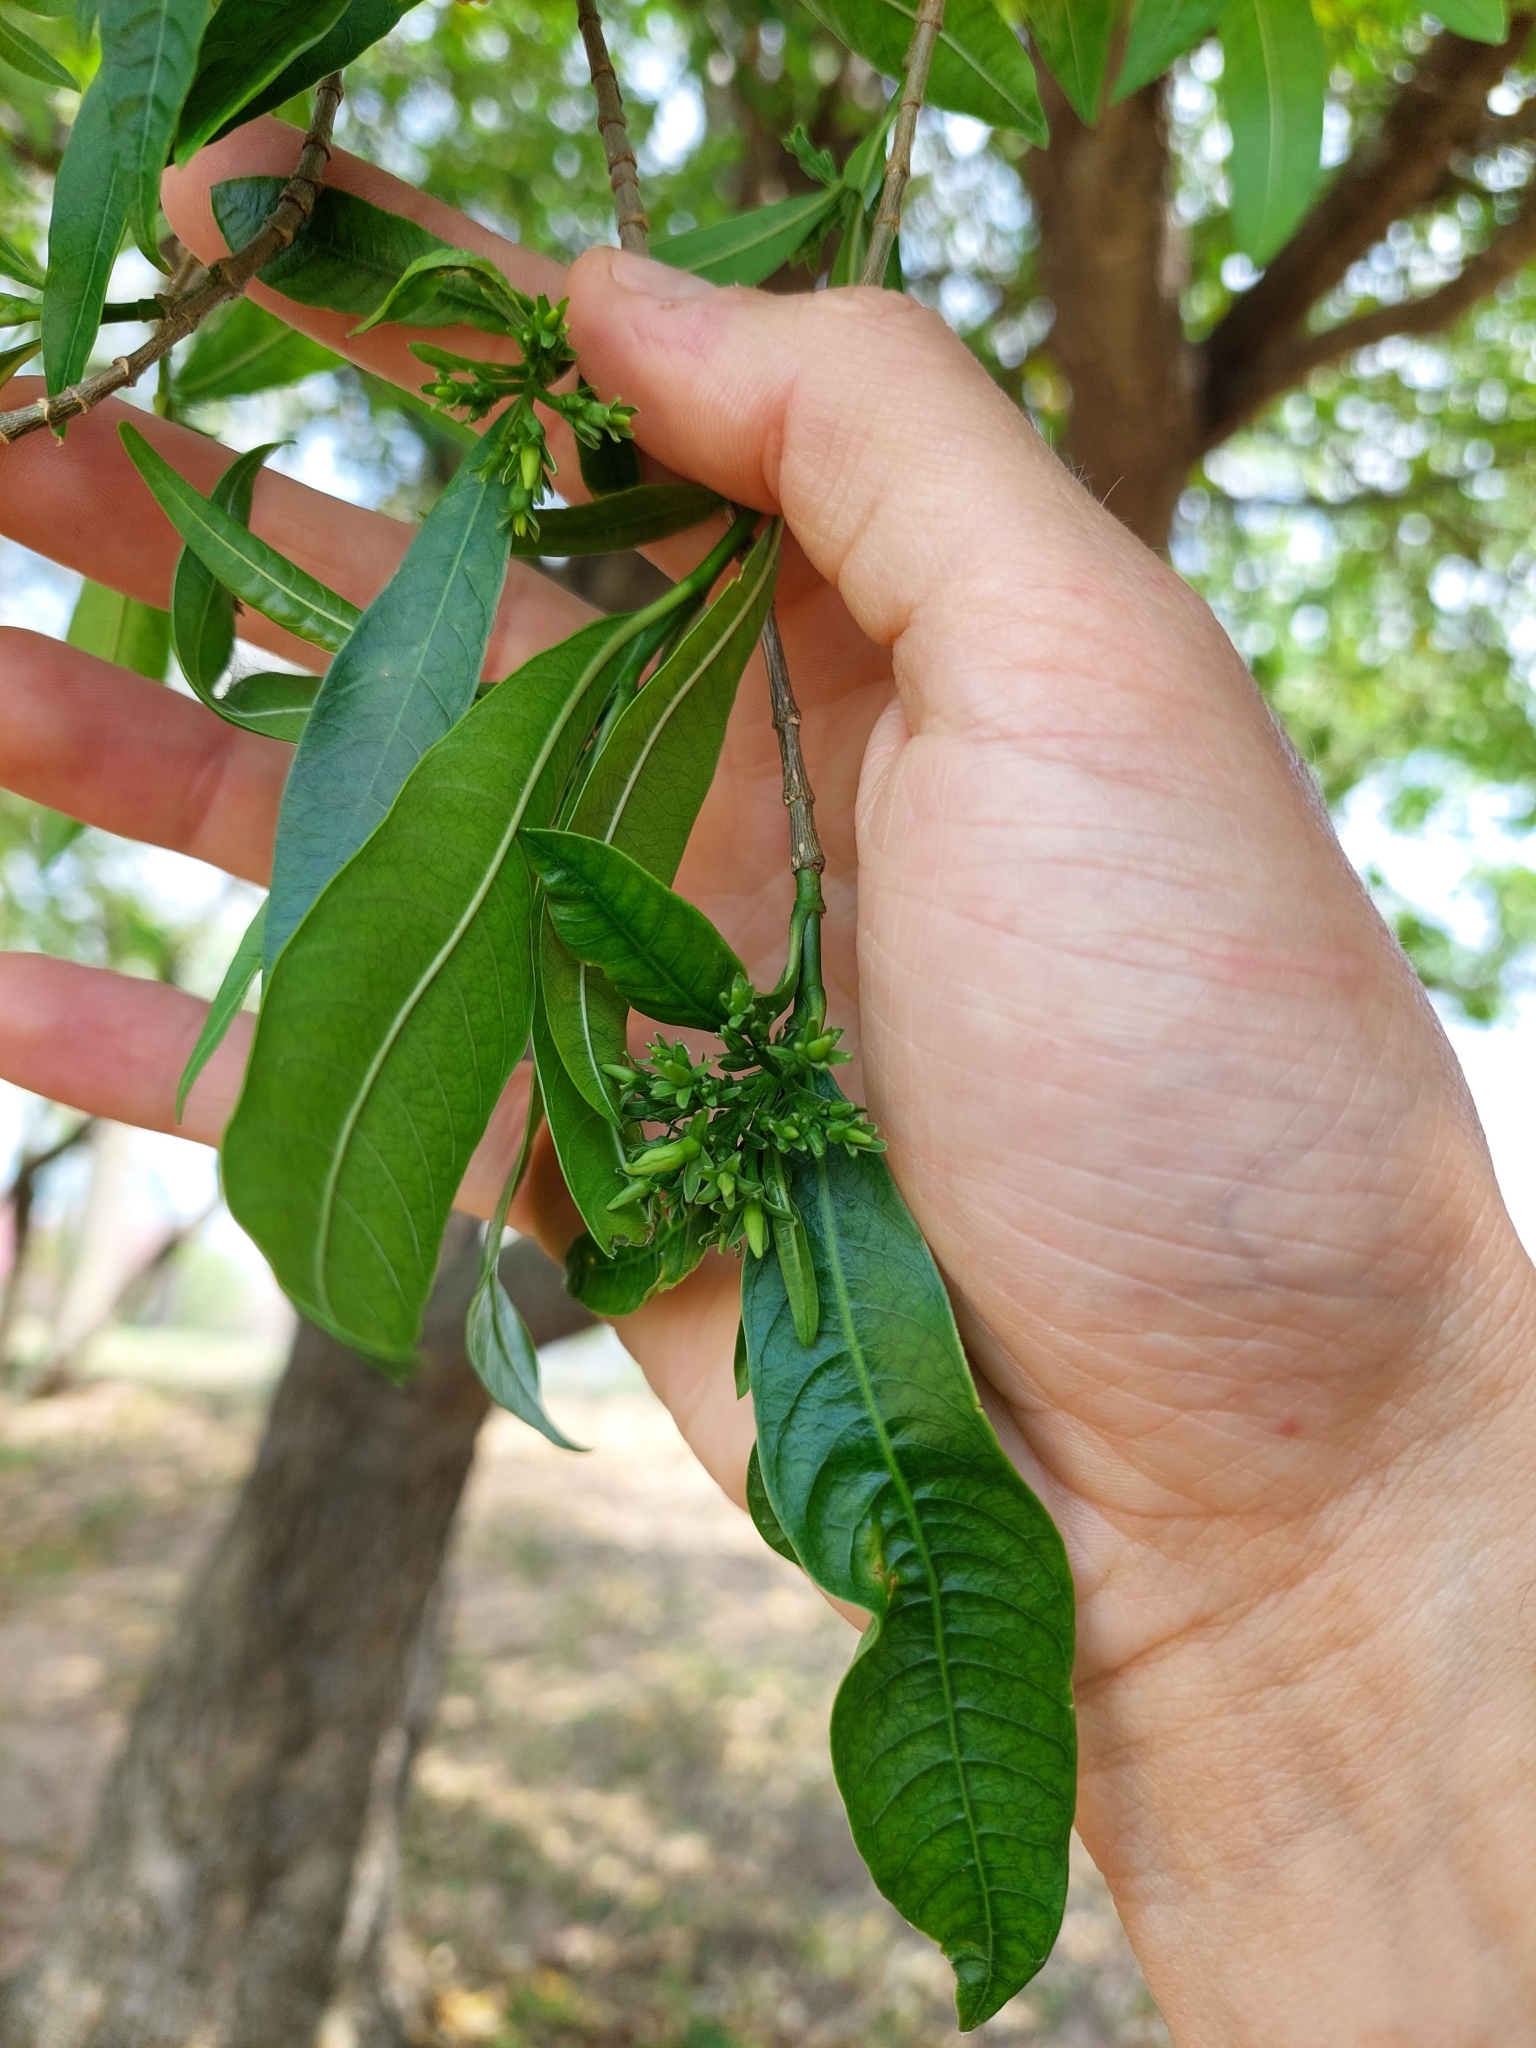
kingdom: Plantae
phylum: Tracheophyta
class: Magnoliopsida
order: Gentianales
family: Apocynaceae
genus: Tabernaemontana
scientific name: Tabernaemontana catharinensis
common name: Pinwheel-flower
